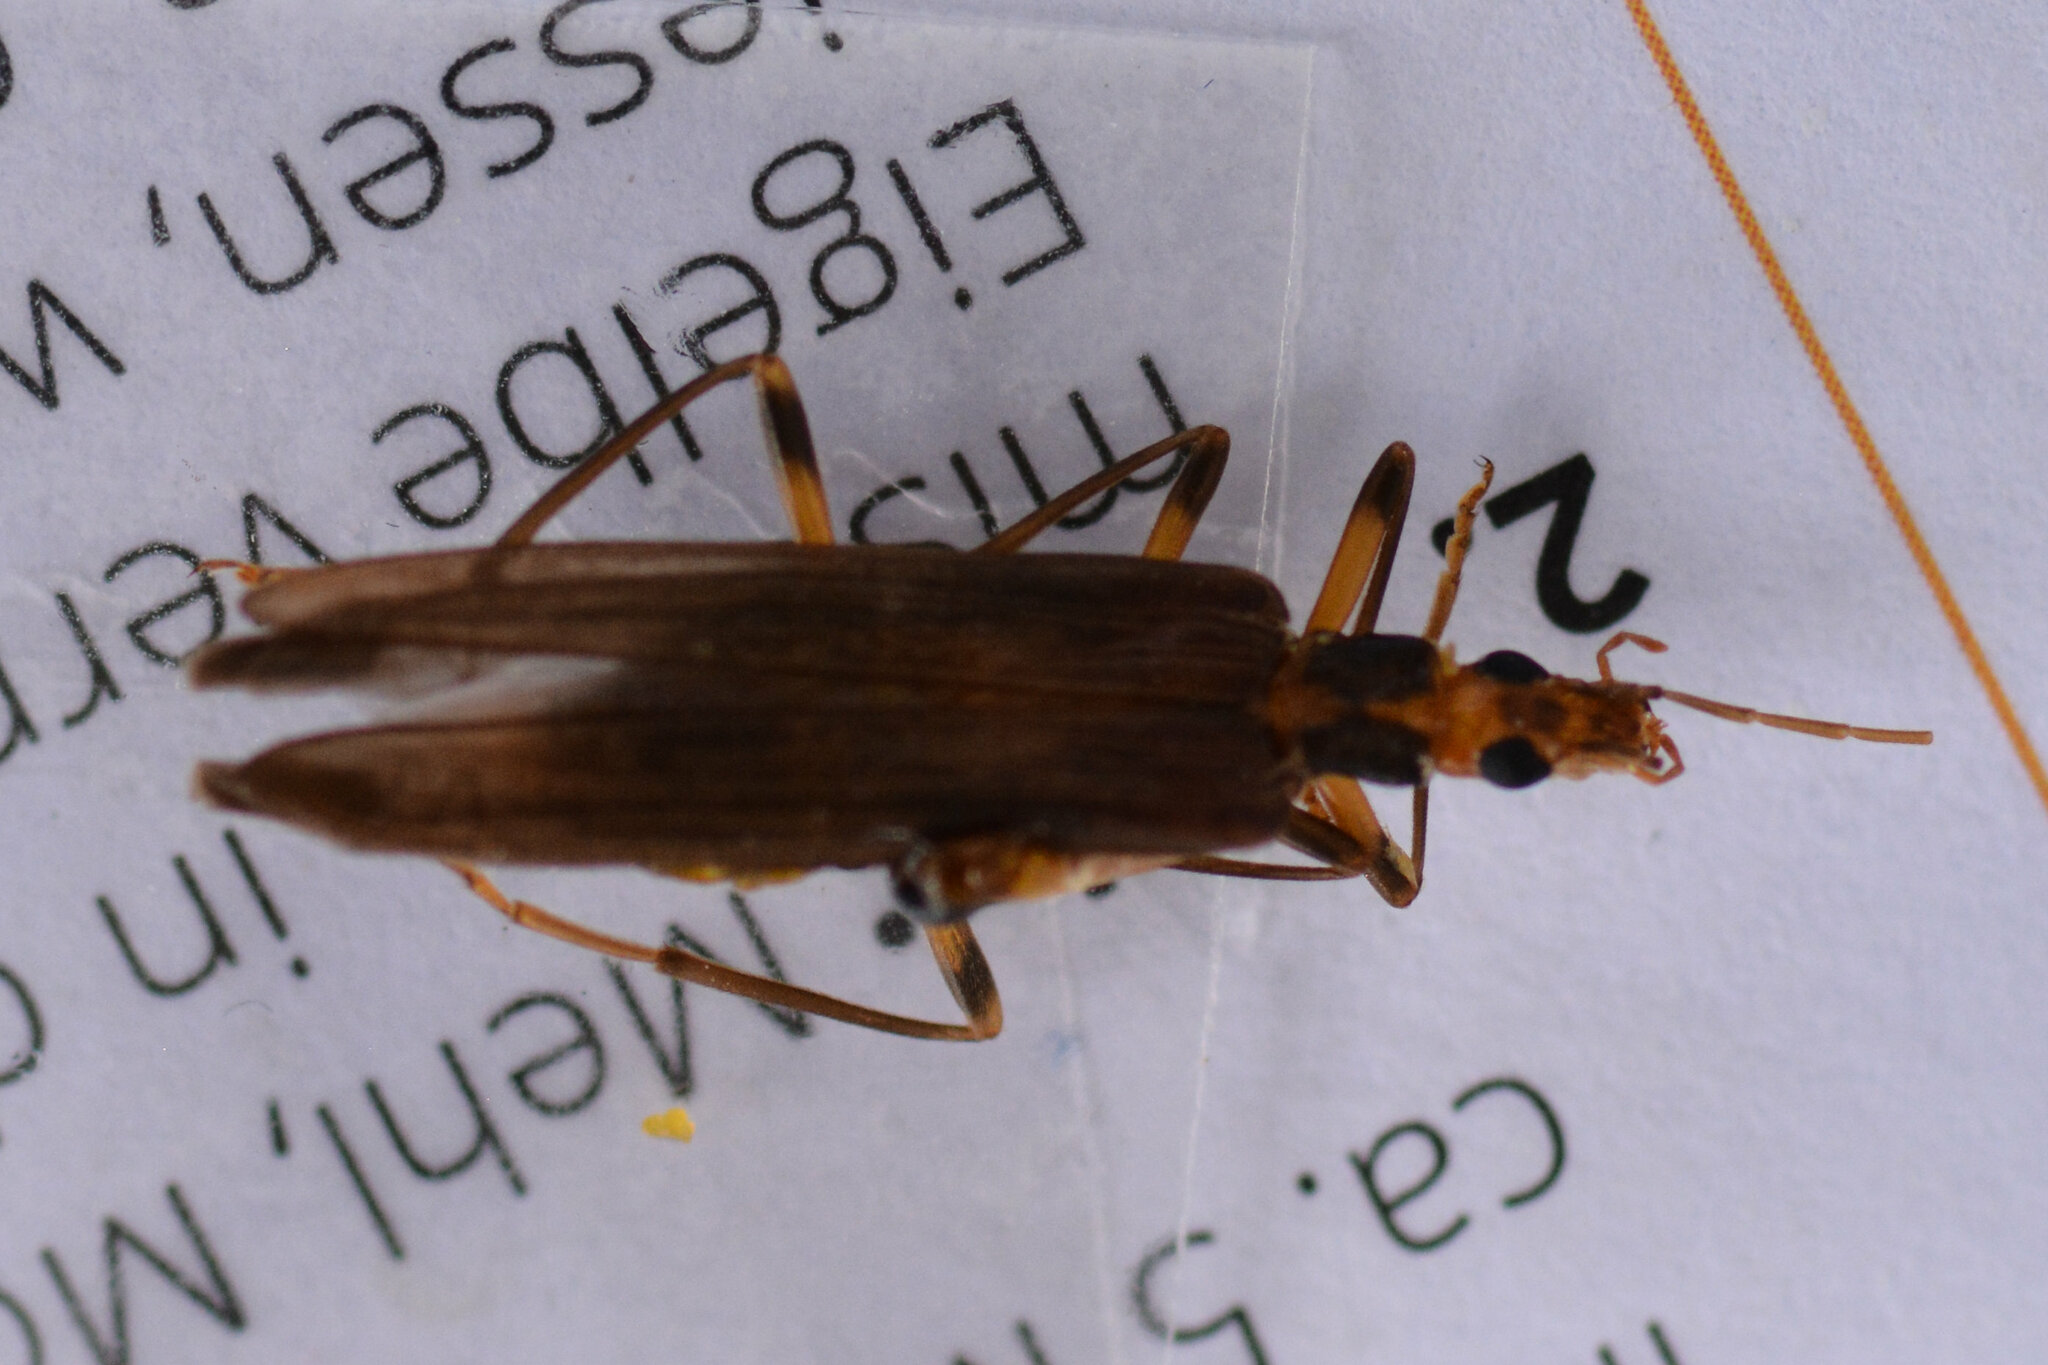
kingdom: Animalia
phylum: Arthropoda
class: Insecta
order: Coleoptera
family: Oedemeridae
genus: Oedemera
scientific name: Oedemera femoralis
